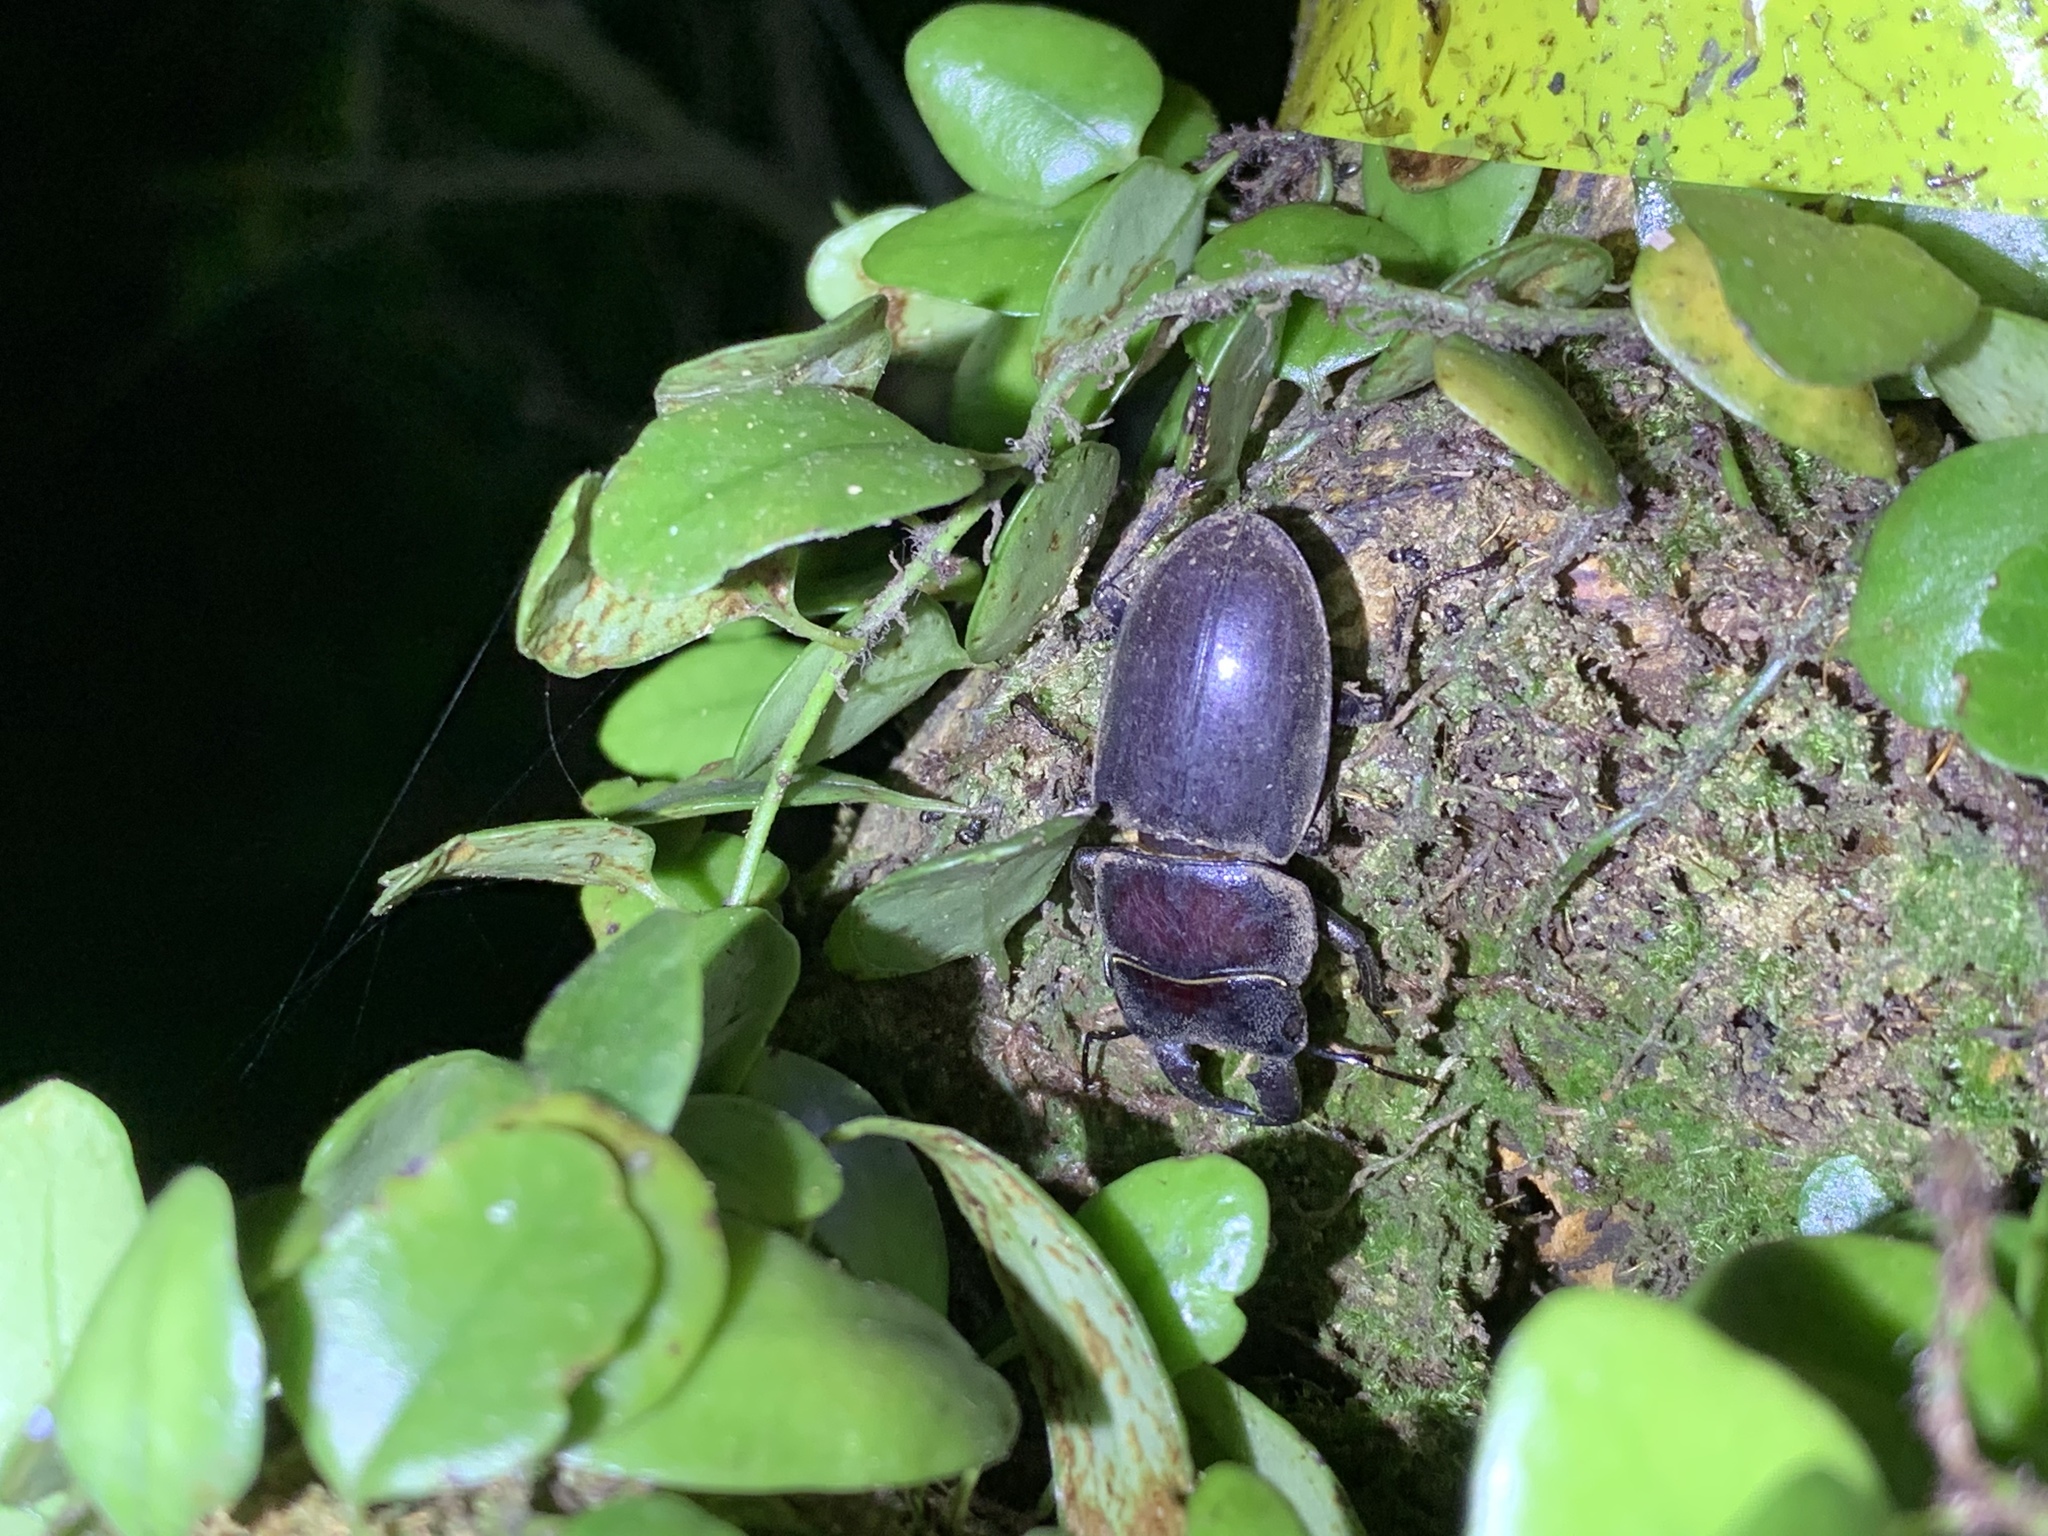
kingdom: Animalia
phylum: Arthropoda
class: Insecta
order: Coleoptera
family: Lucanidae
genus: Serrognathus
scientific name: Serrognathus titanus
